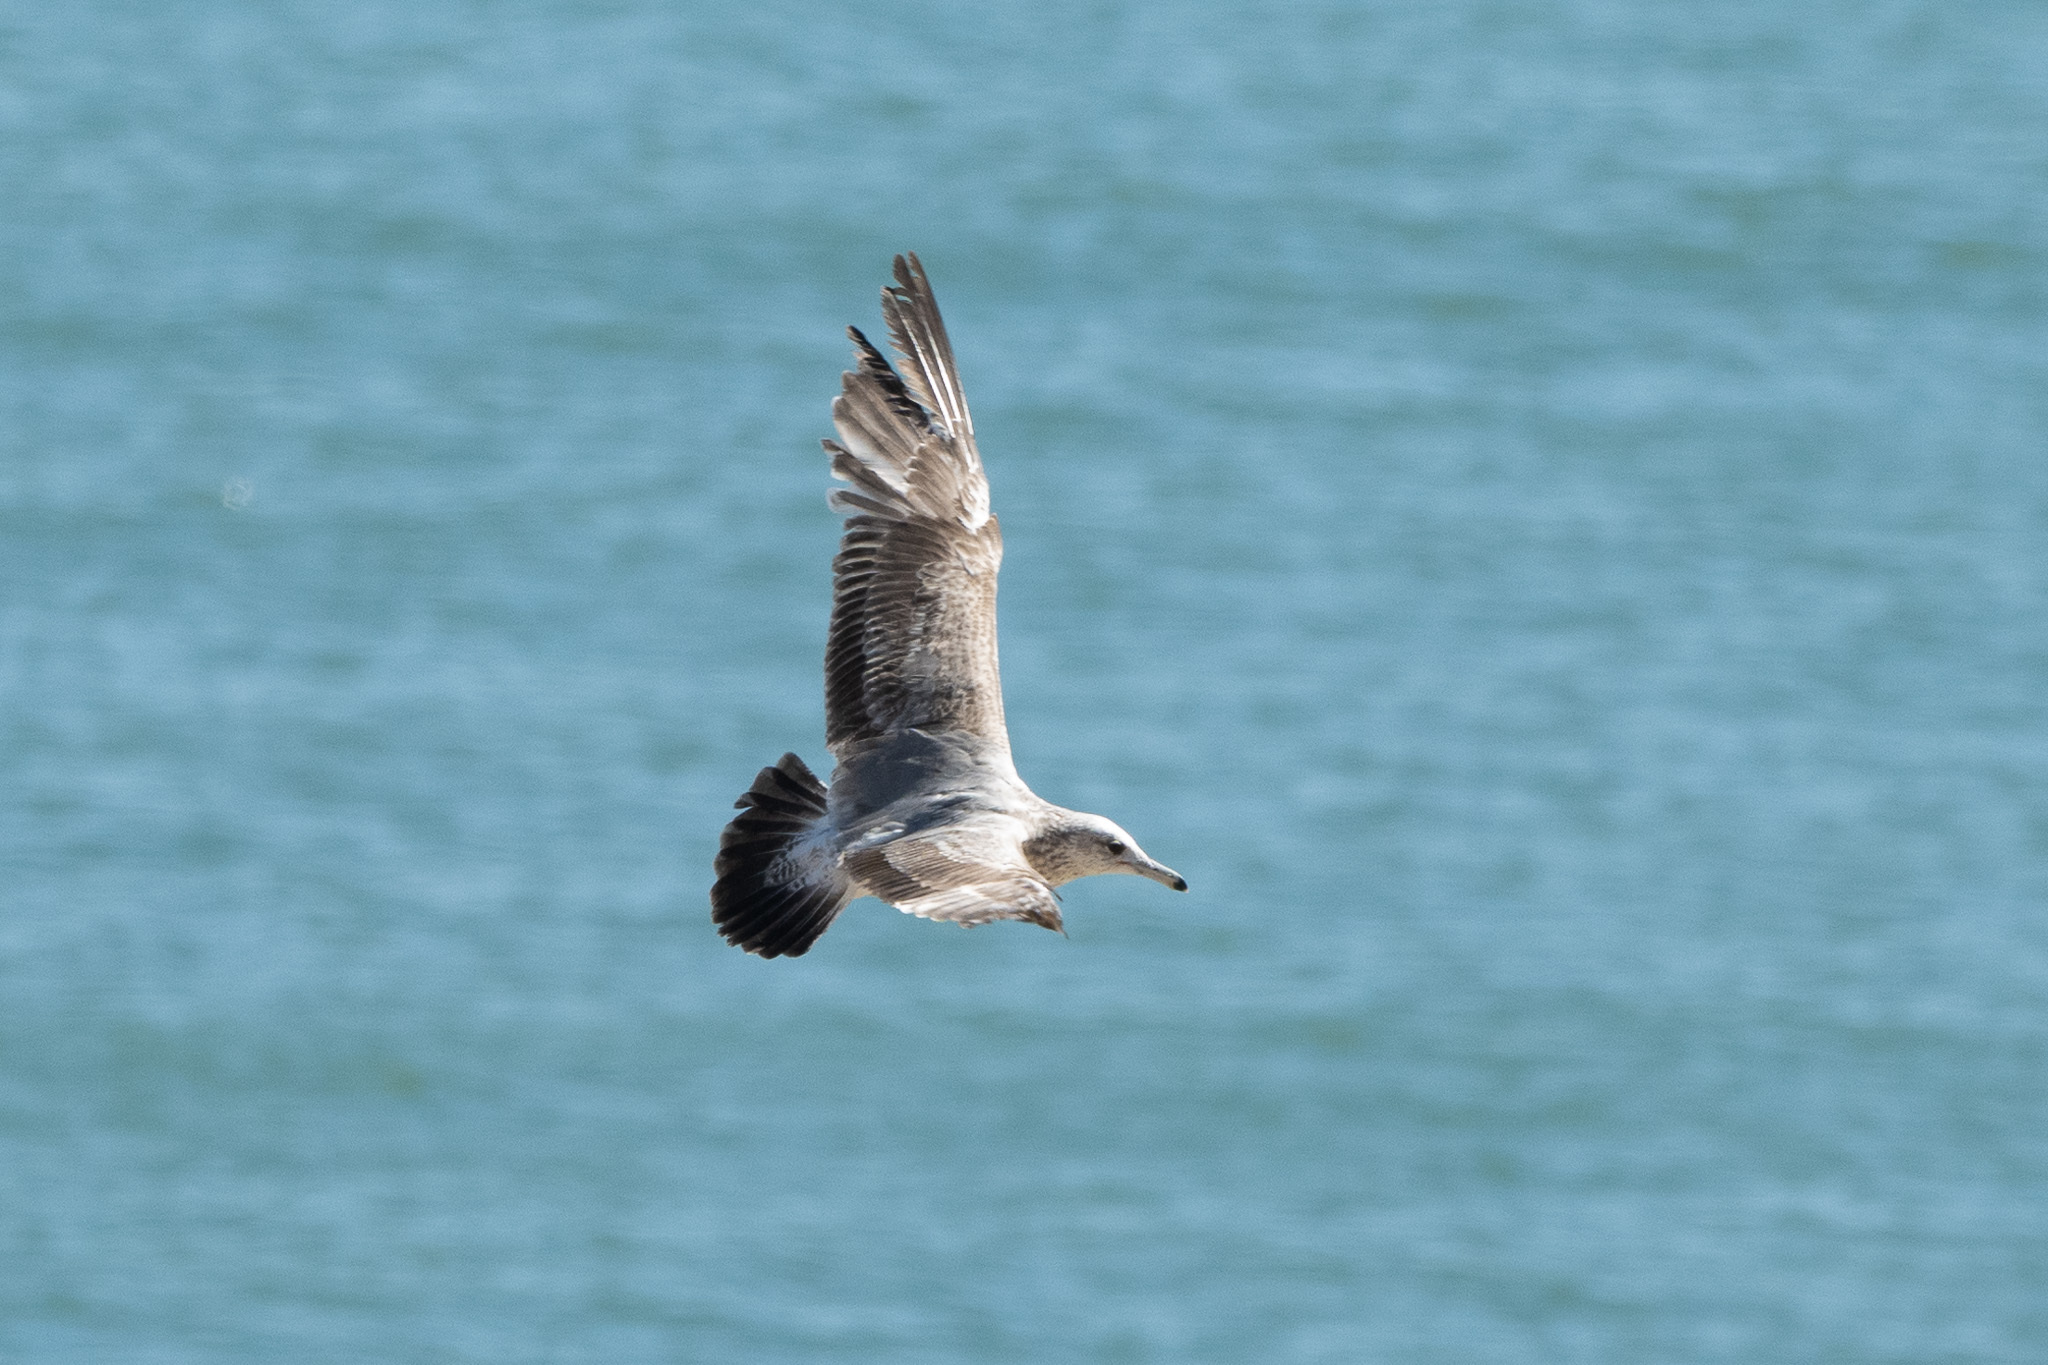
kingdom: Animalia
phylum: Chordata
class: Aves
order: Charadriiformes
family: Laridae
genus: Larus
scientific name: Larus californicus
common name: California gull
